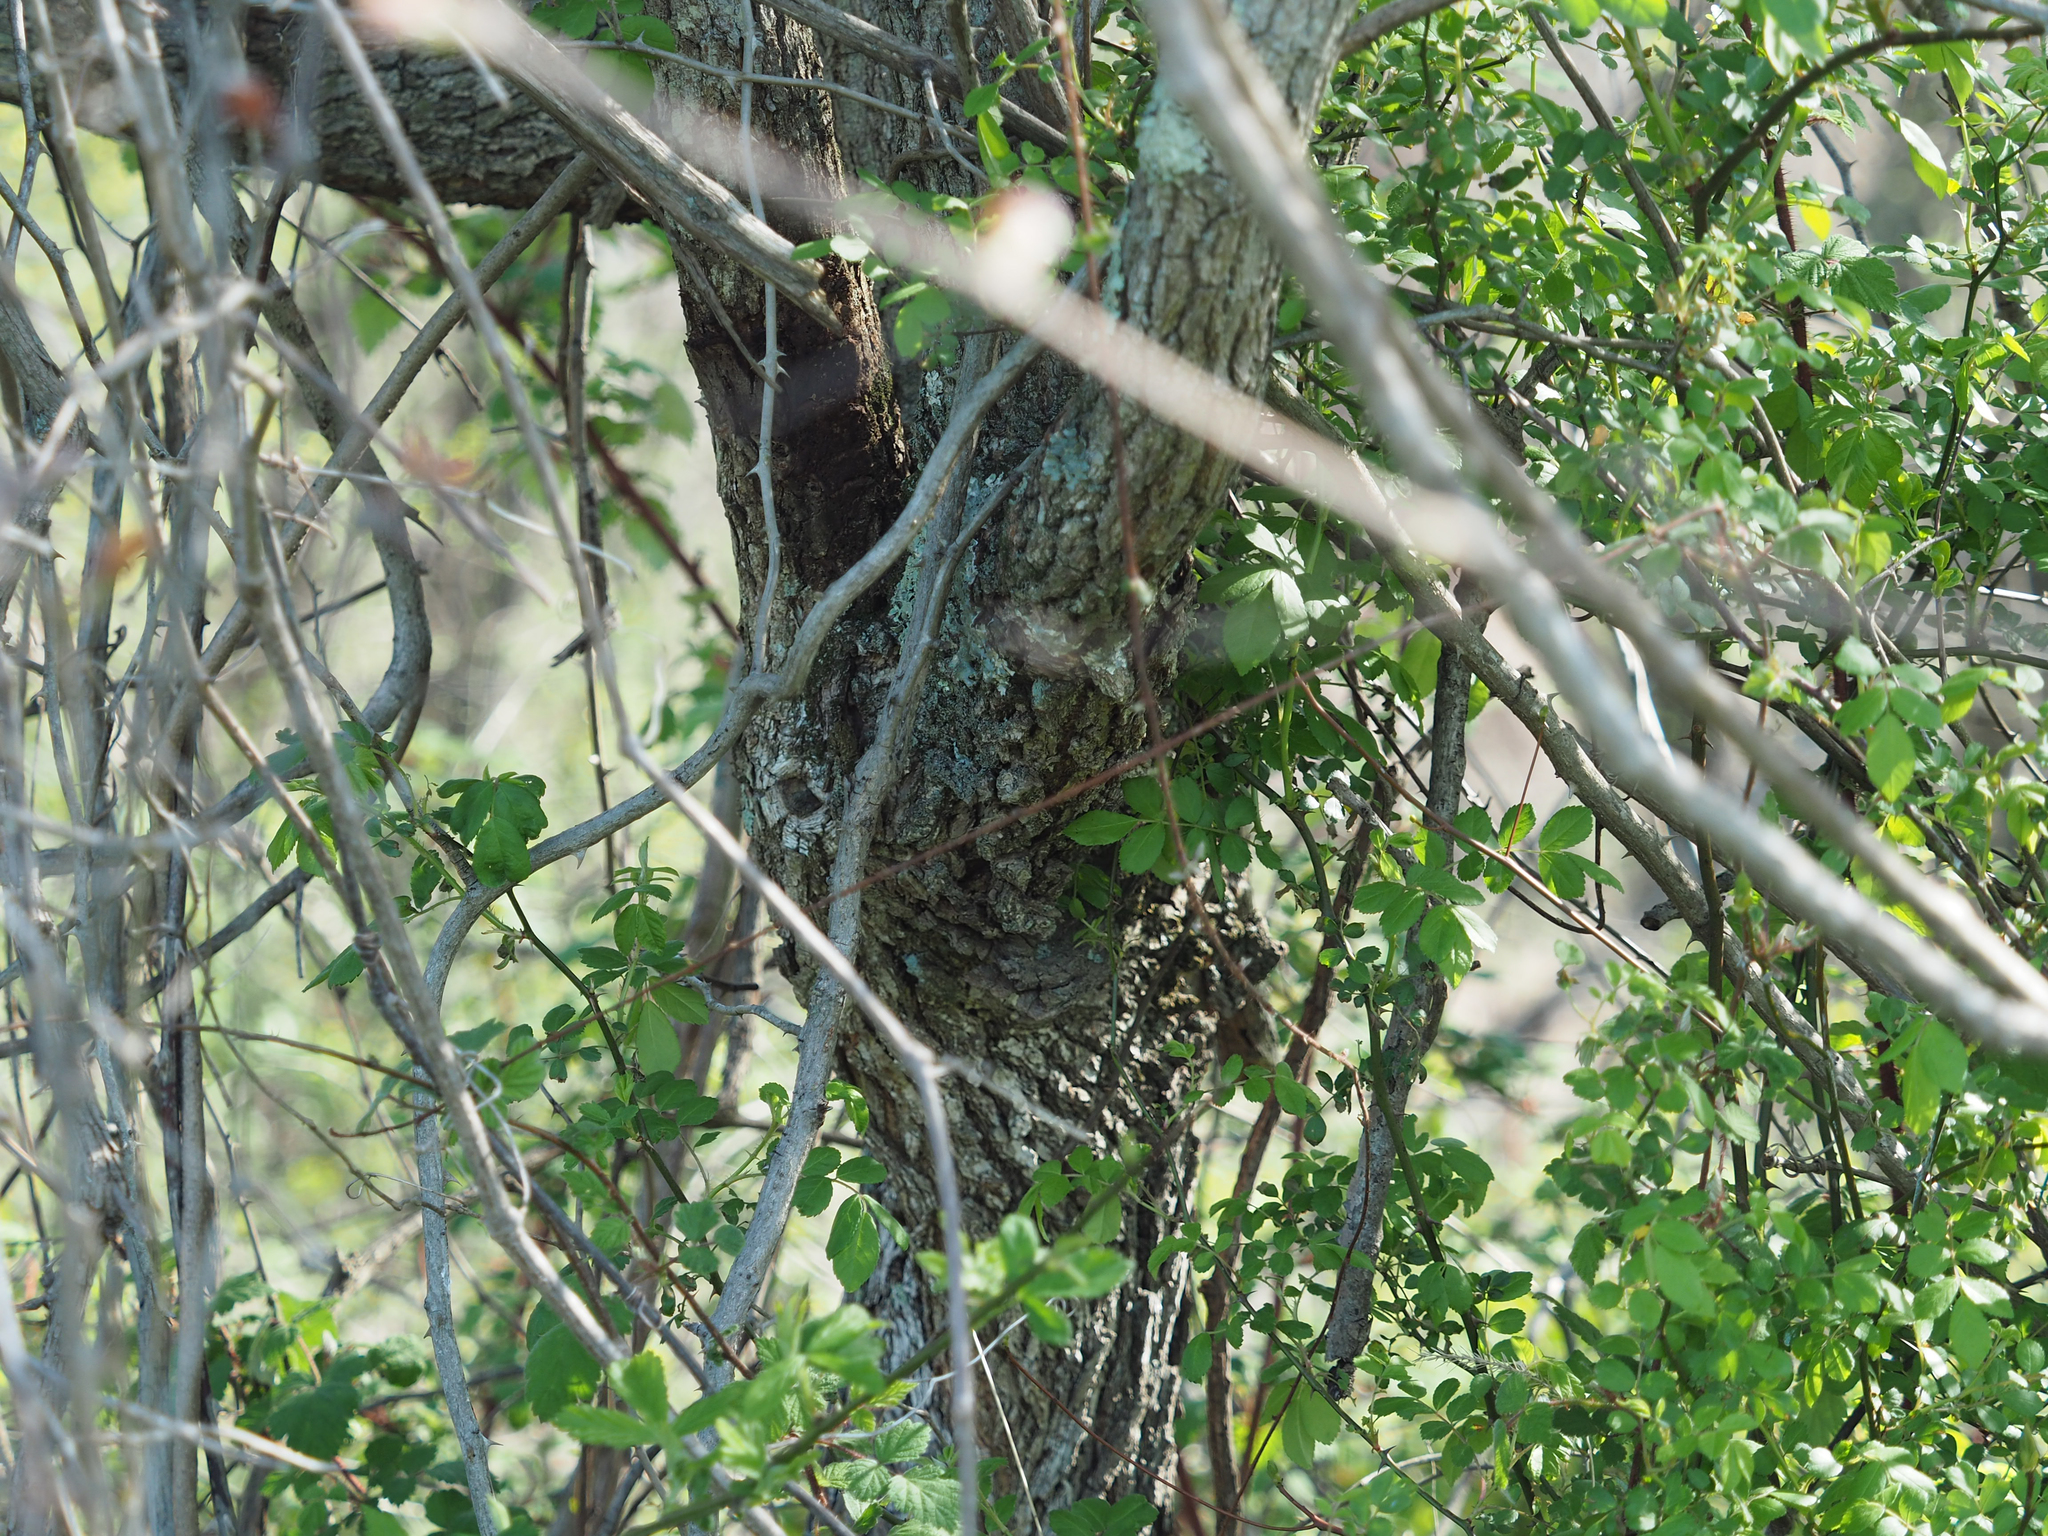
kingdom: Plantae
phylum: Tracheophyta
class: Magnoliopsida
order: Laurales
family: Lauraceae
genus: Sassafras
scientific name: Sassafras albidum
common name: Sassafras
